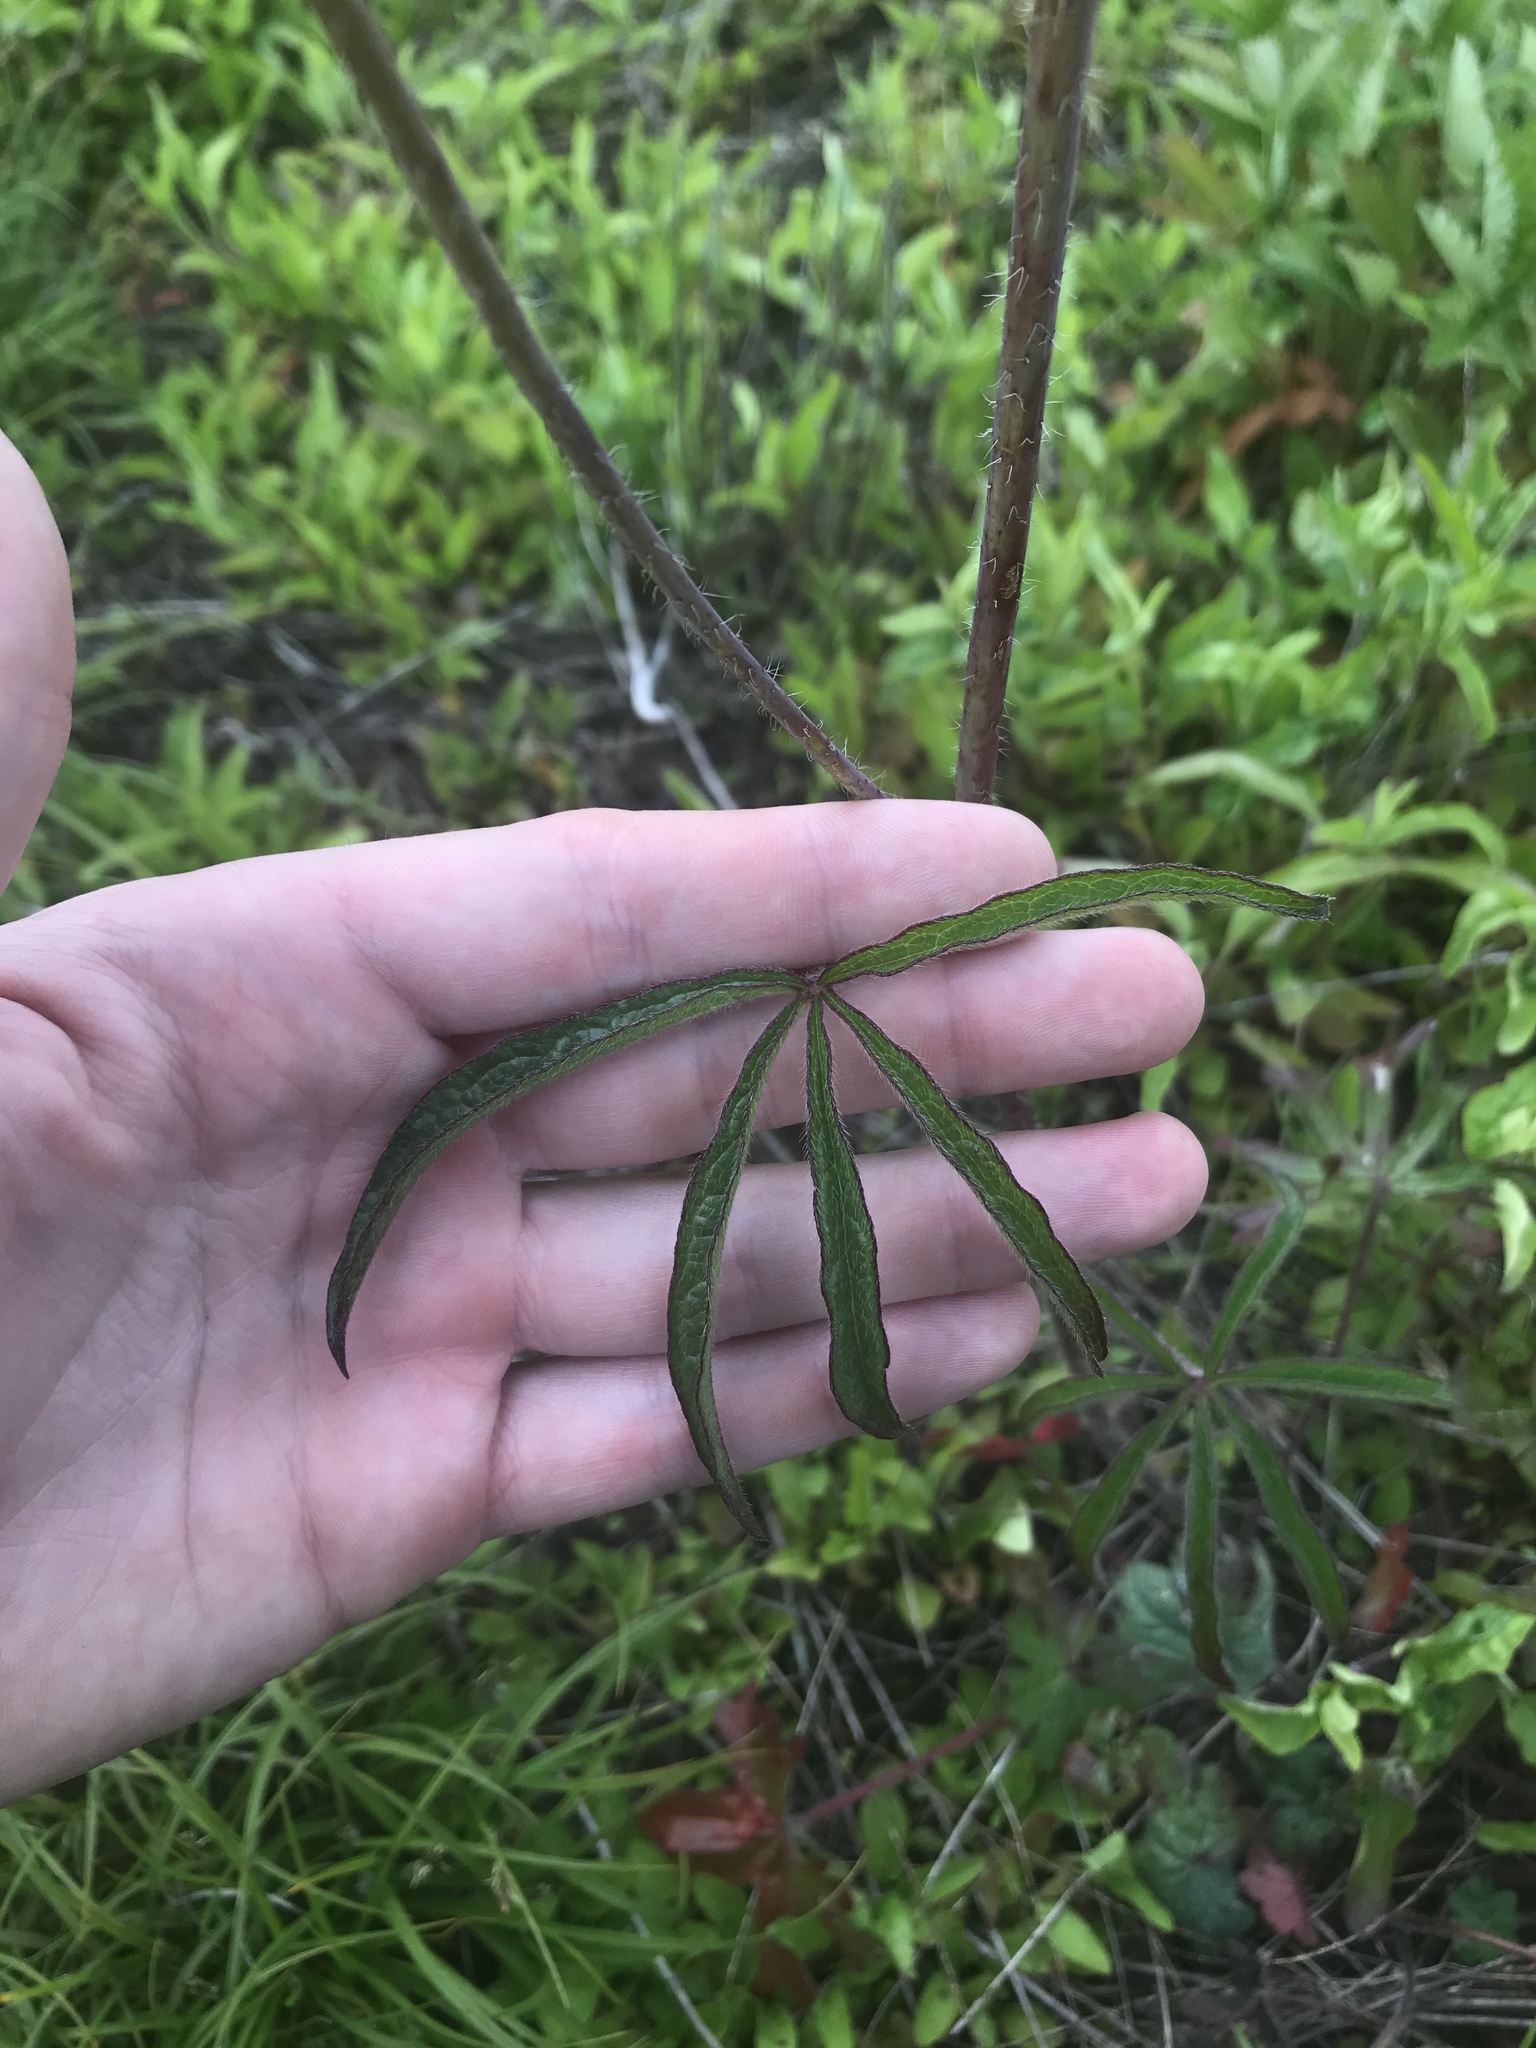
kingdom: Plantae
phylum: Tracheophyta
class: Magnoliopsida
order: Malvales
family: Malvaceae
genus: Sidalcea
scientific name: Sidalcea campestris
